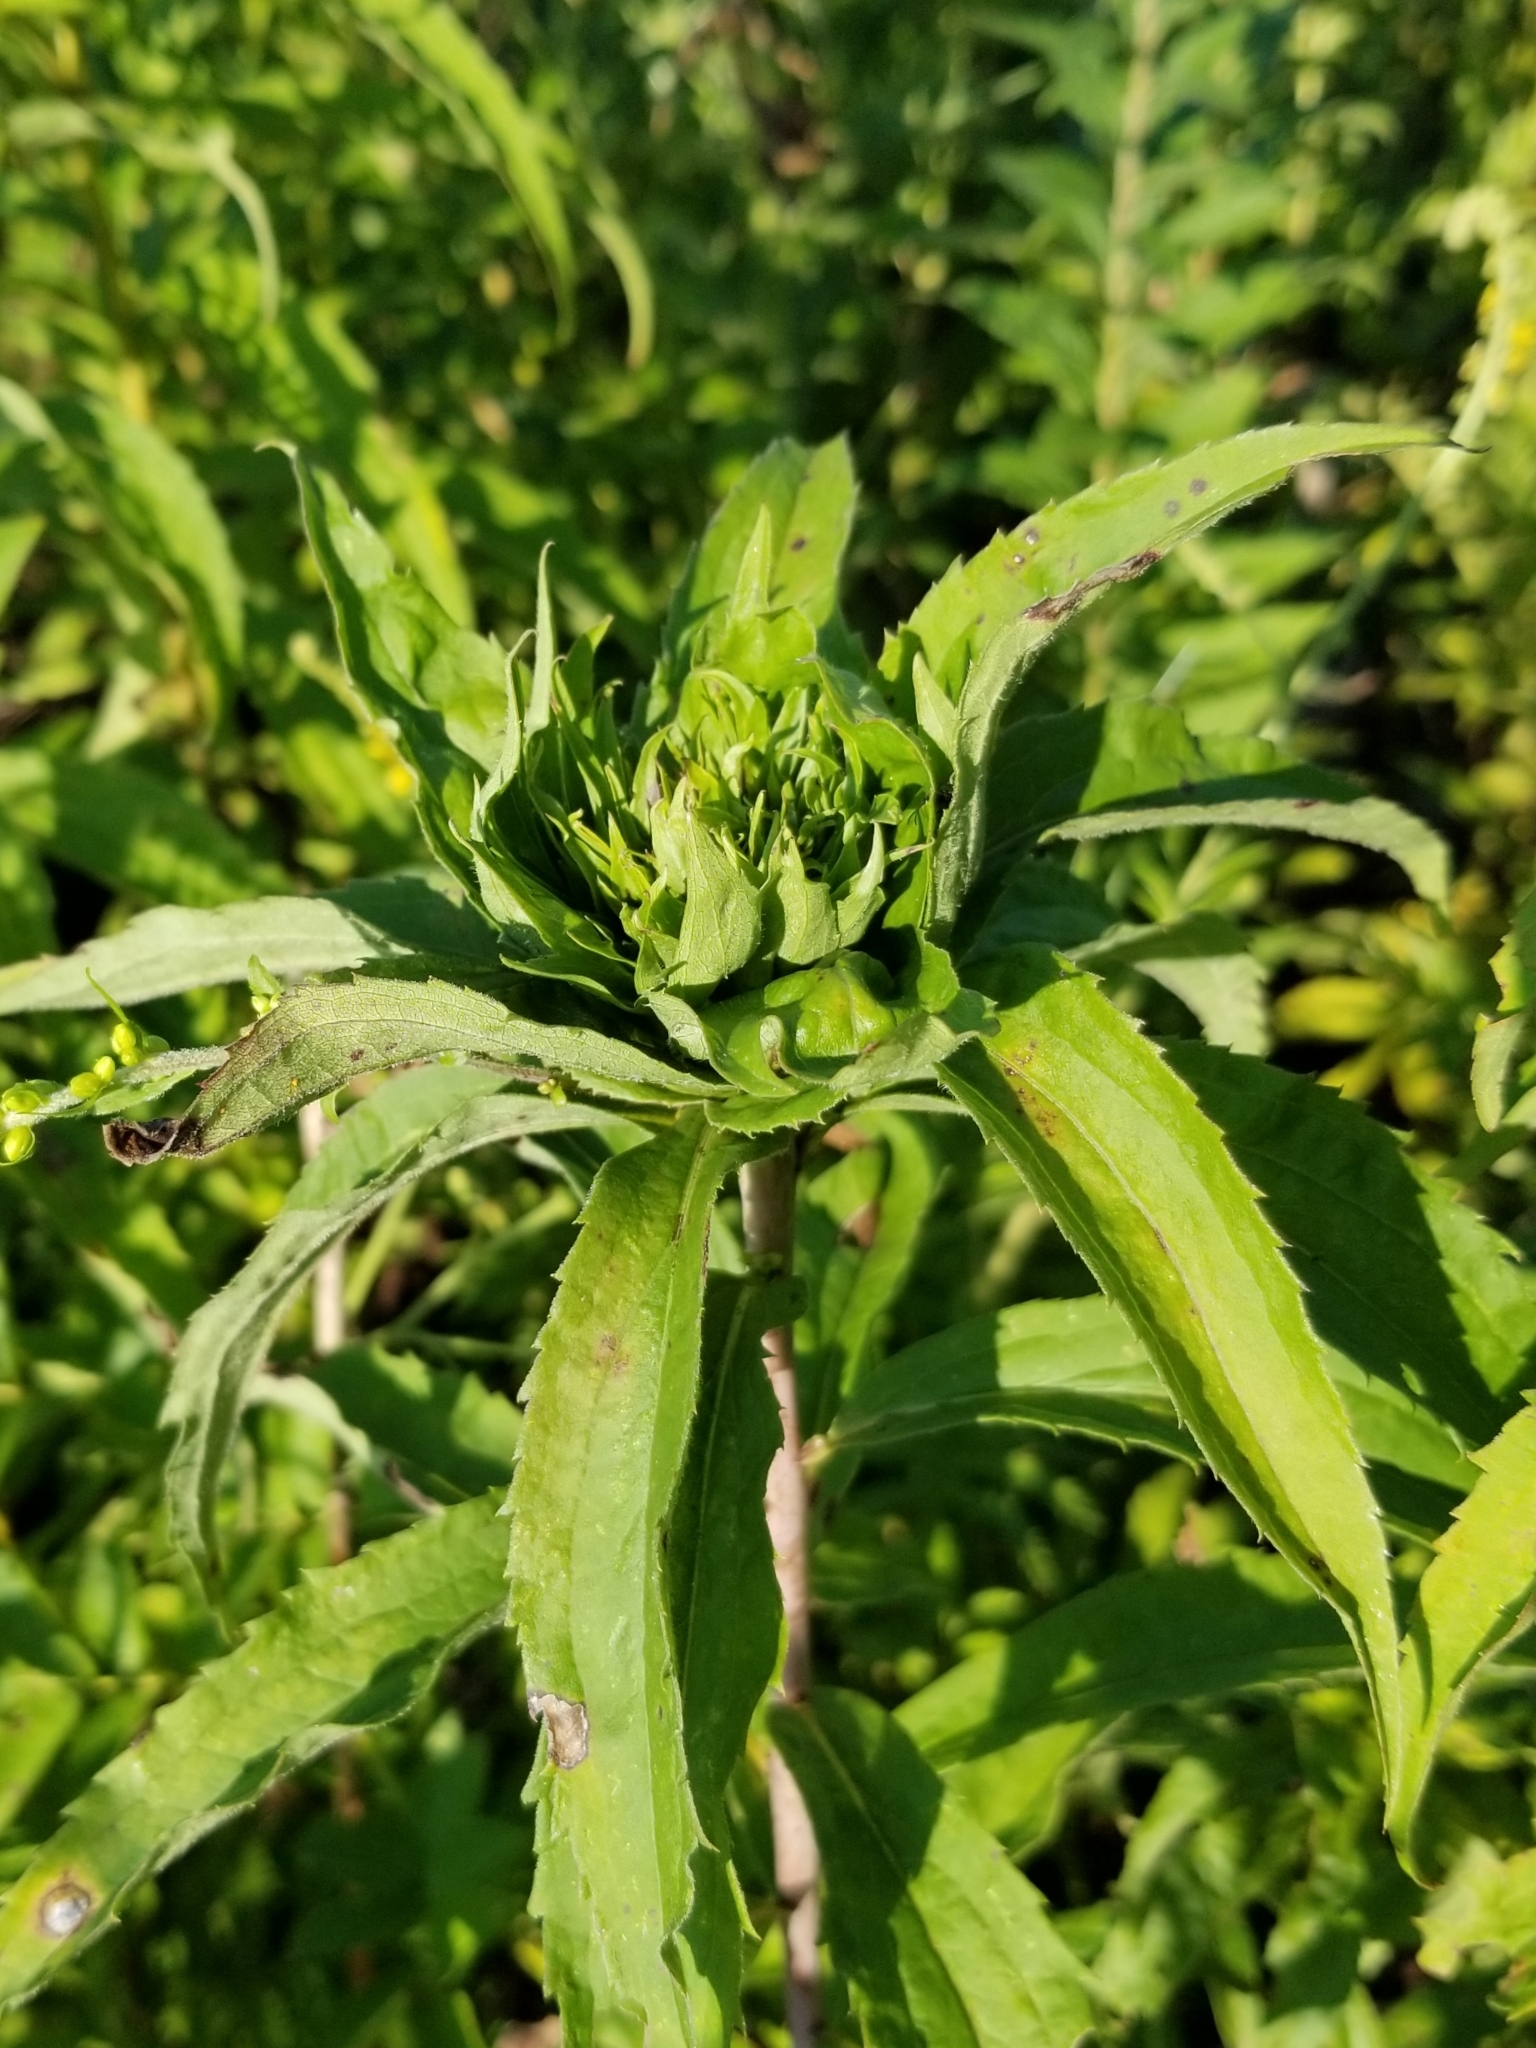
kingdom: Animalia
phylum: Arthropoda
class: Insecta
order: Diptera
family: Cecidomyiidae
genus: Rhopalomyia
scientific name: Rhopalomyia capitata
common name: Giant goldenrod bunch gall midge
